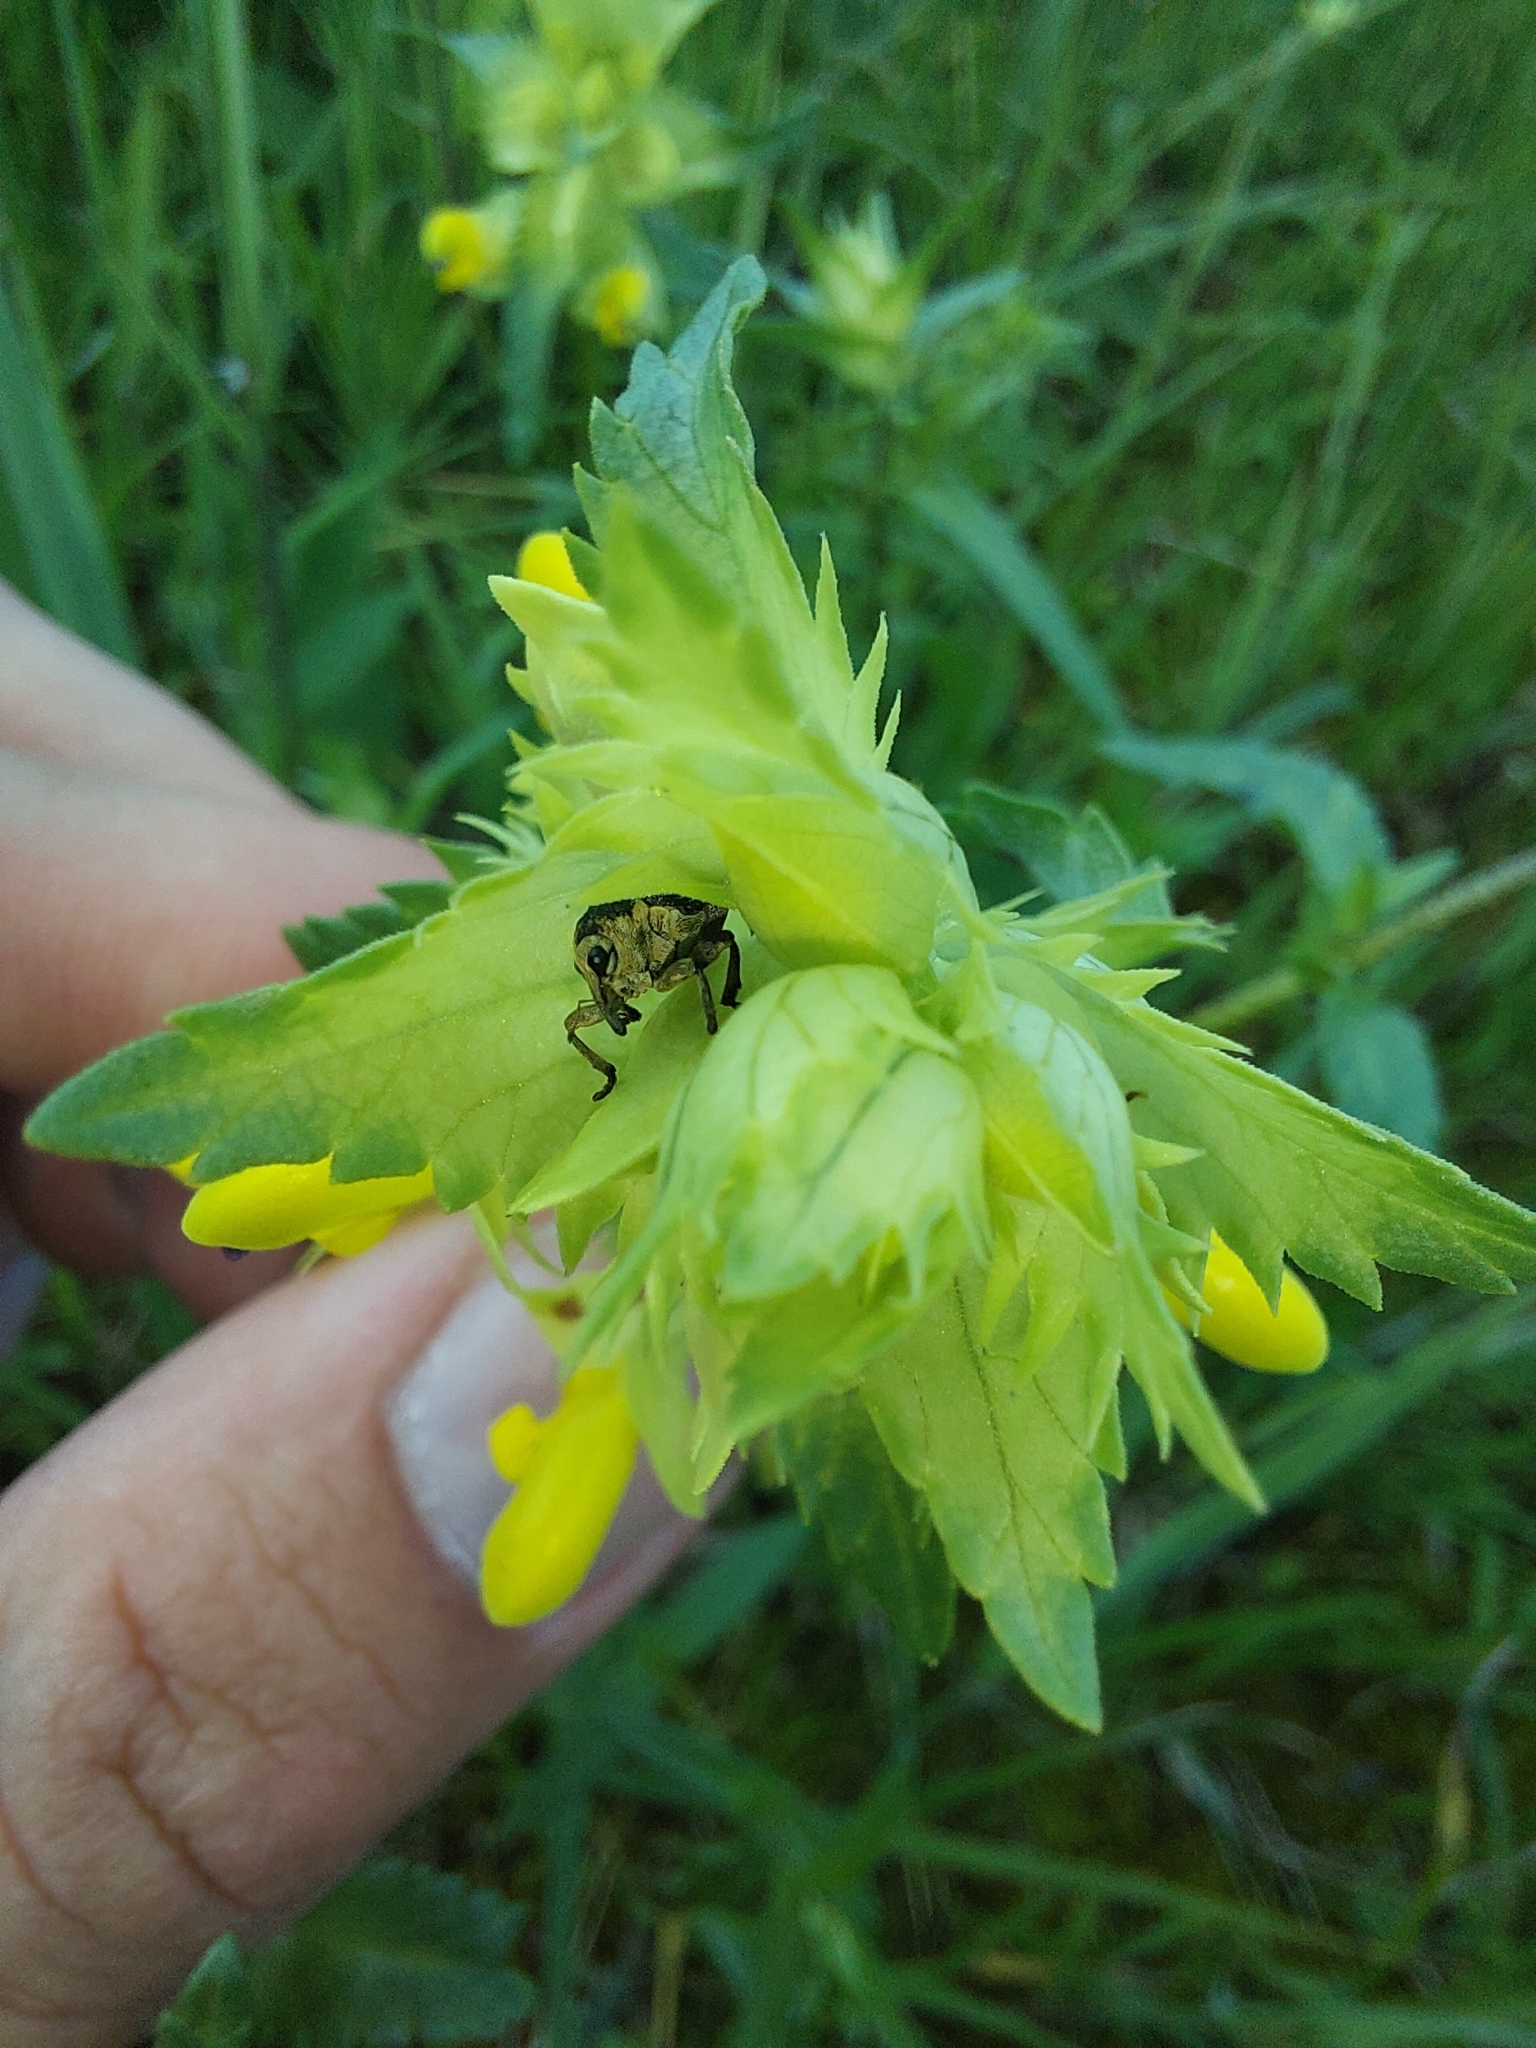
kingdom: Animalia
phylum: Arthropoda
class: Insecta
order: Coleoptera
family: Curculionidae
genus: Mononychus
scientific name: Mononychus punctumalbum
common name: Iris weevil
